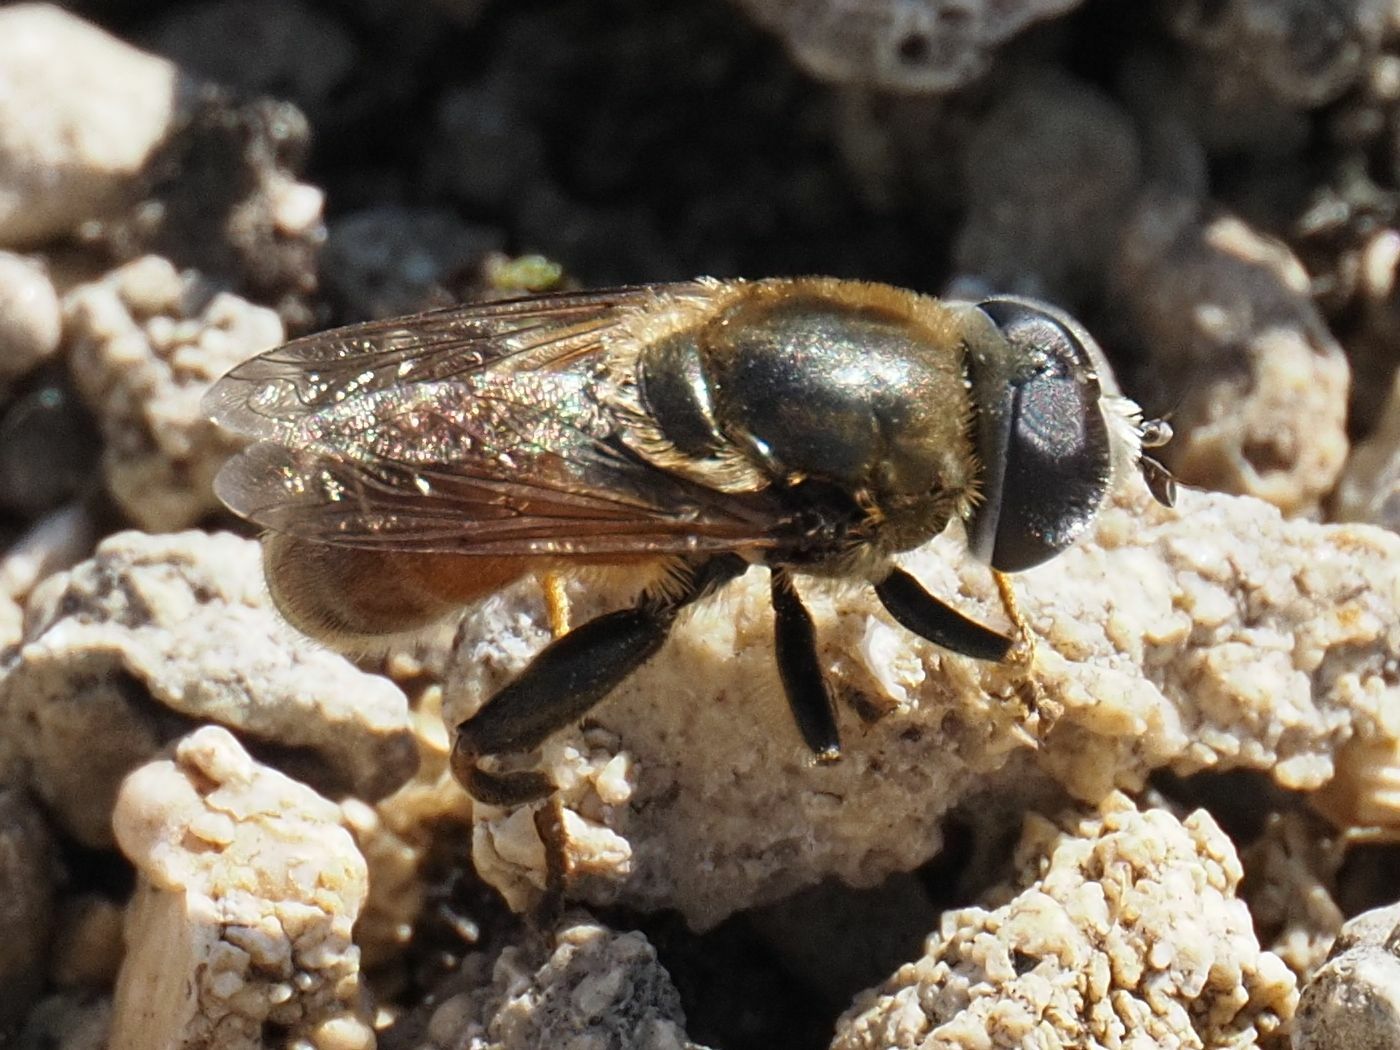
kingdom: Animalia
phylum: Arthropoda
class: Insecta
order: Diptera
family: Syrphidae
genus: Merodon
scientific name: Merodon albifrons
